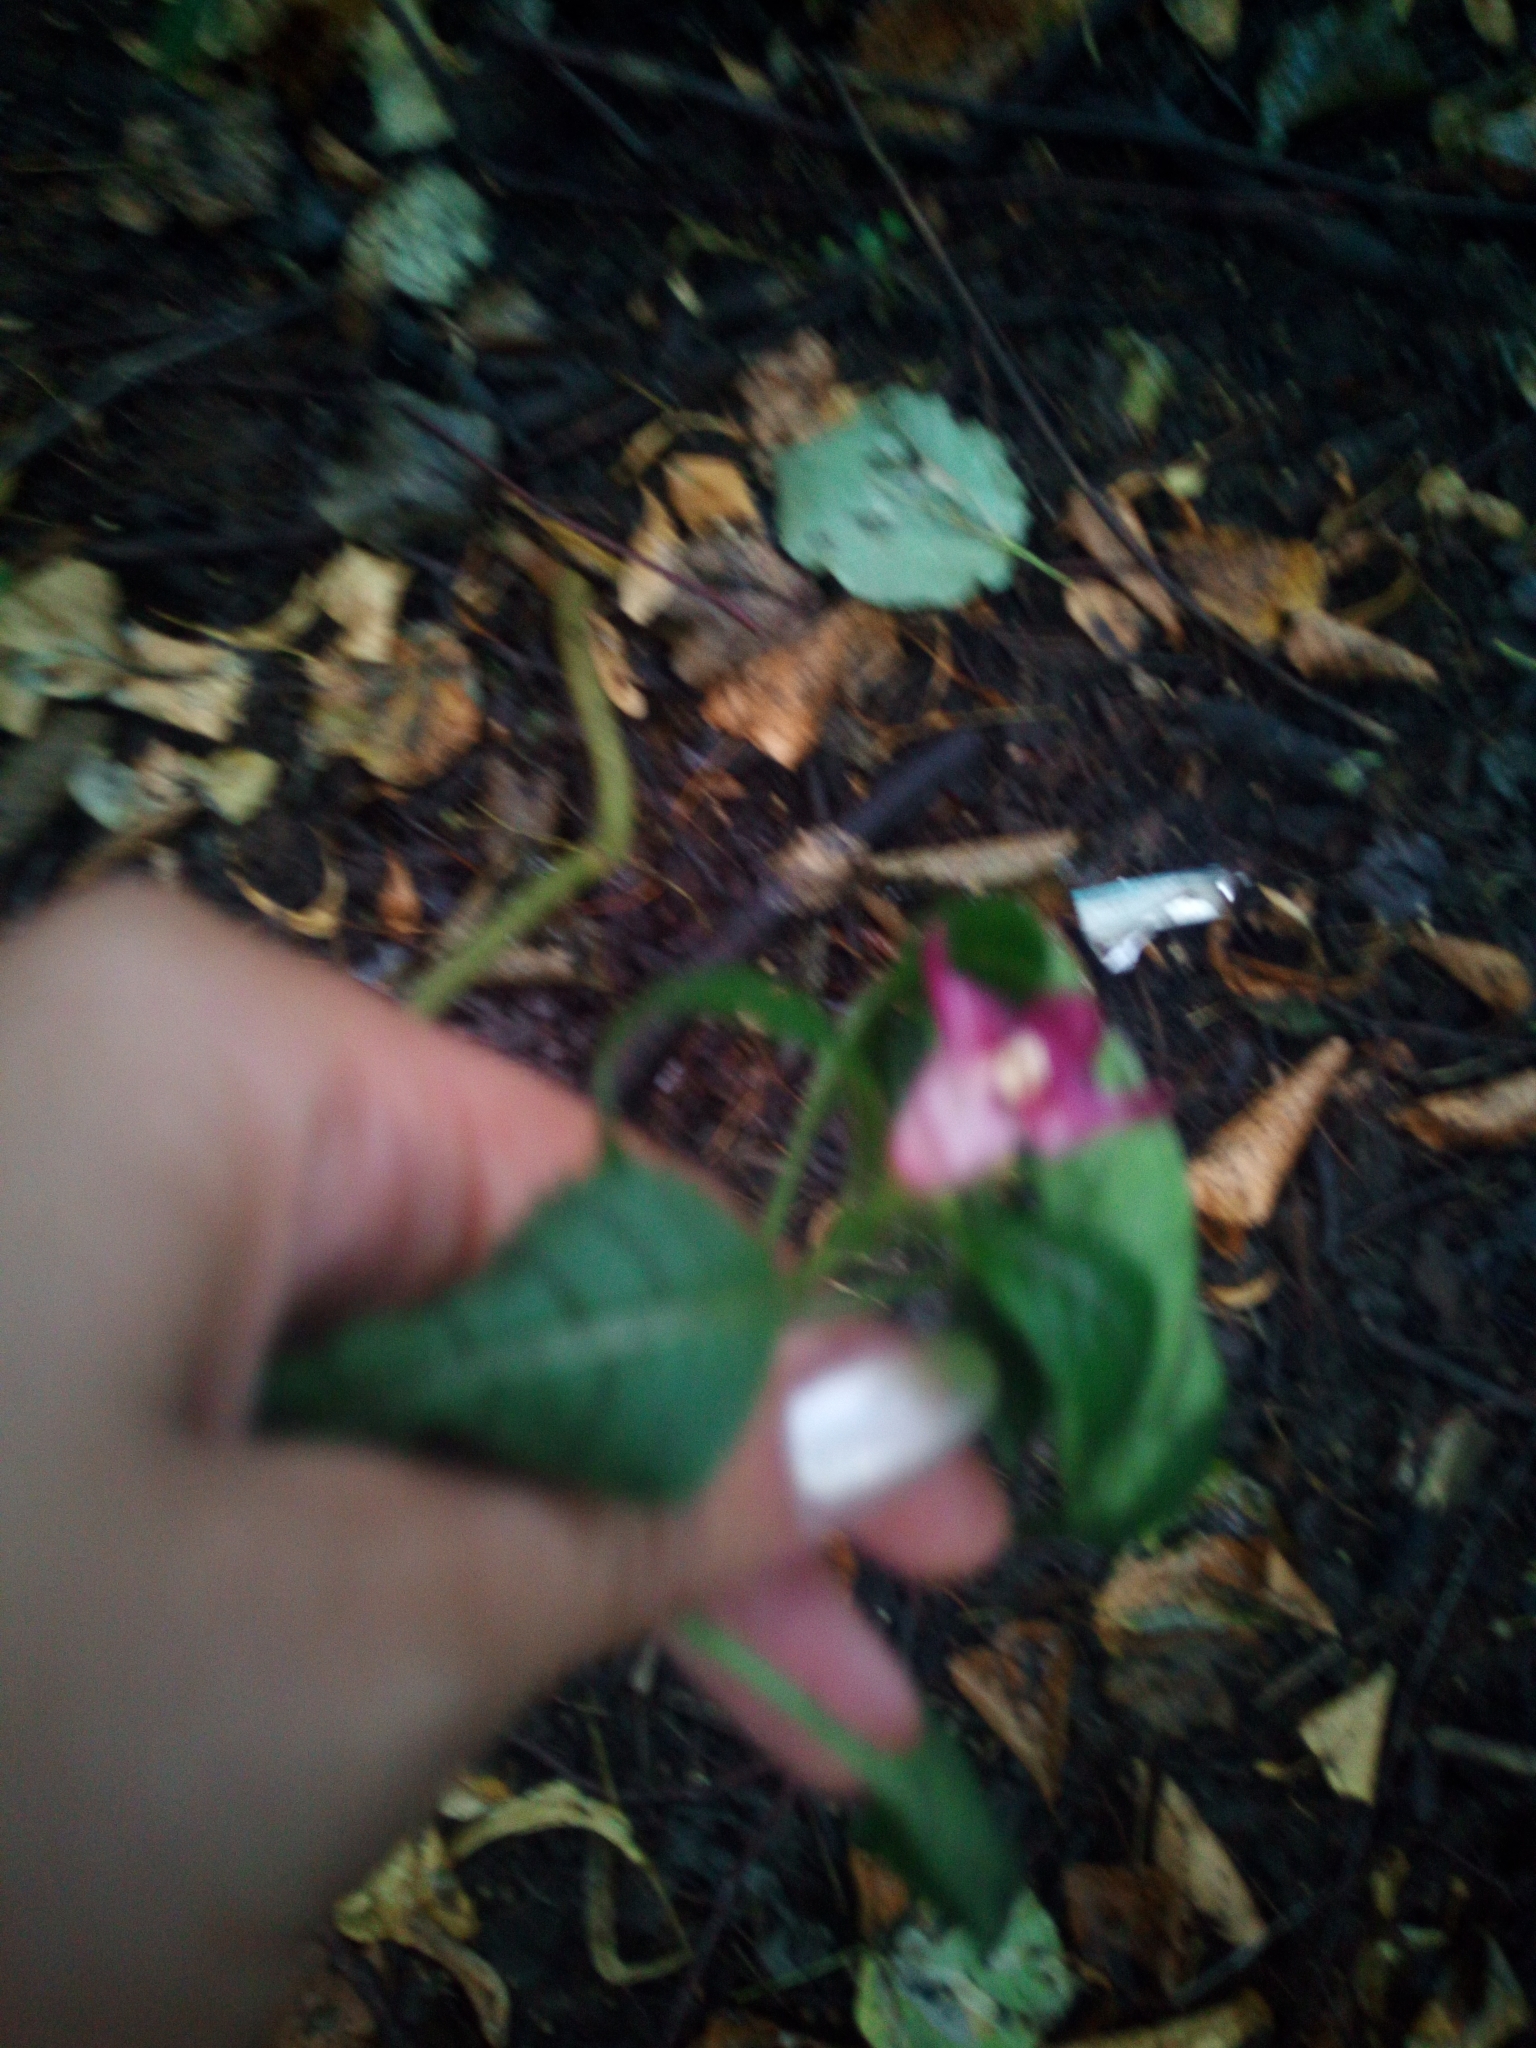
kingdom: Plantae
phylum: Tracheophyta
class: Magnoliopsida
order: Ericales
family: Balsaminaceae
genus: Impatiens
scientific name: Impatiens glandulifera
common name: Himalayan balsam
